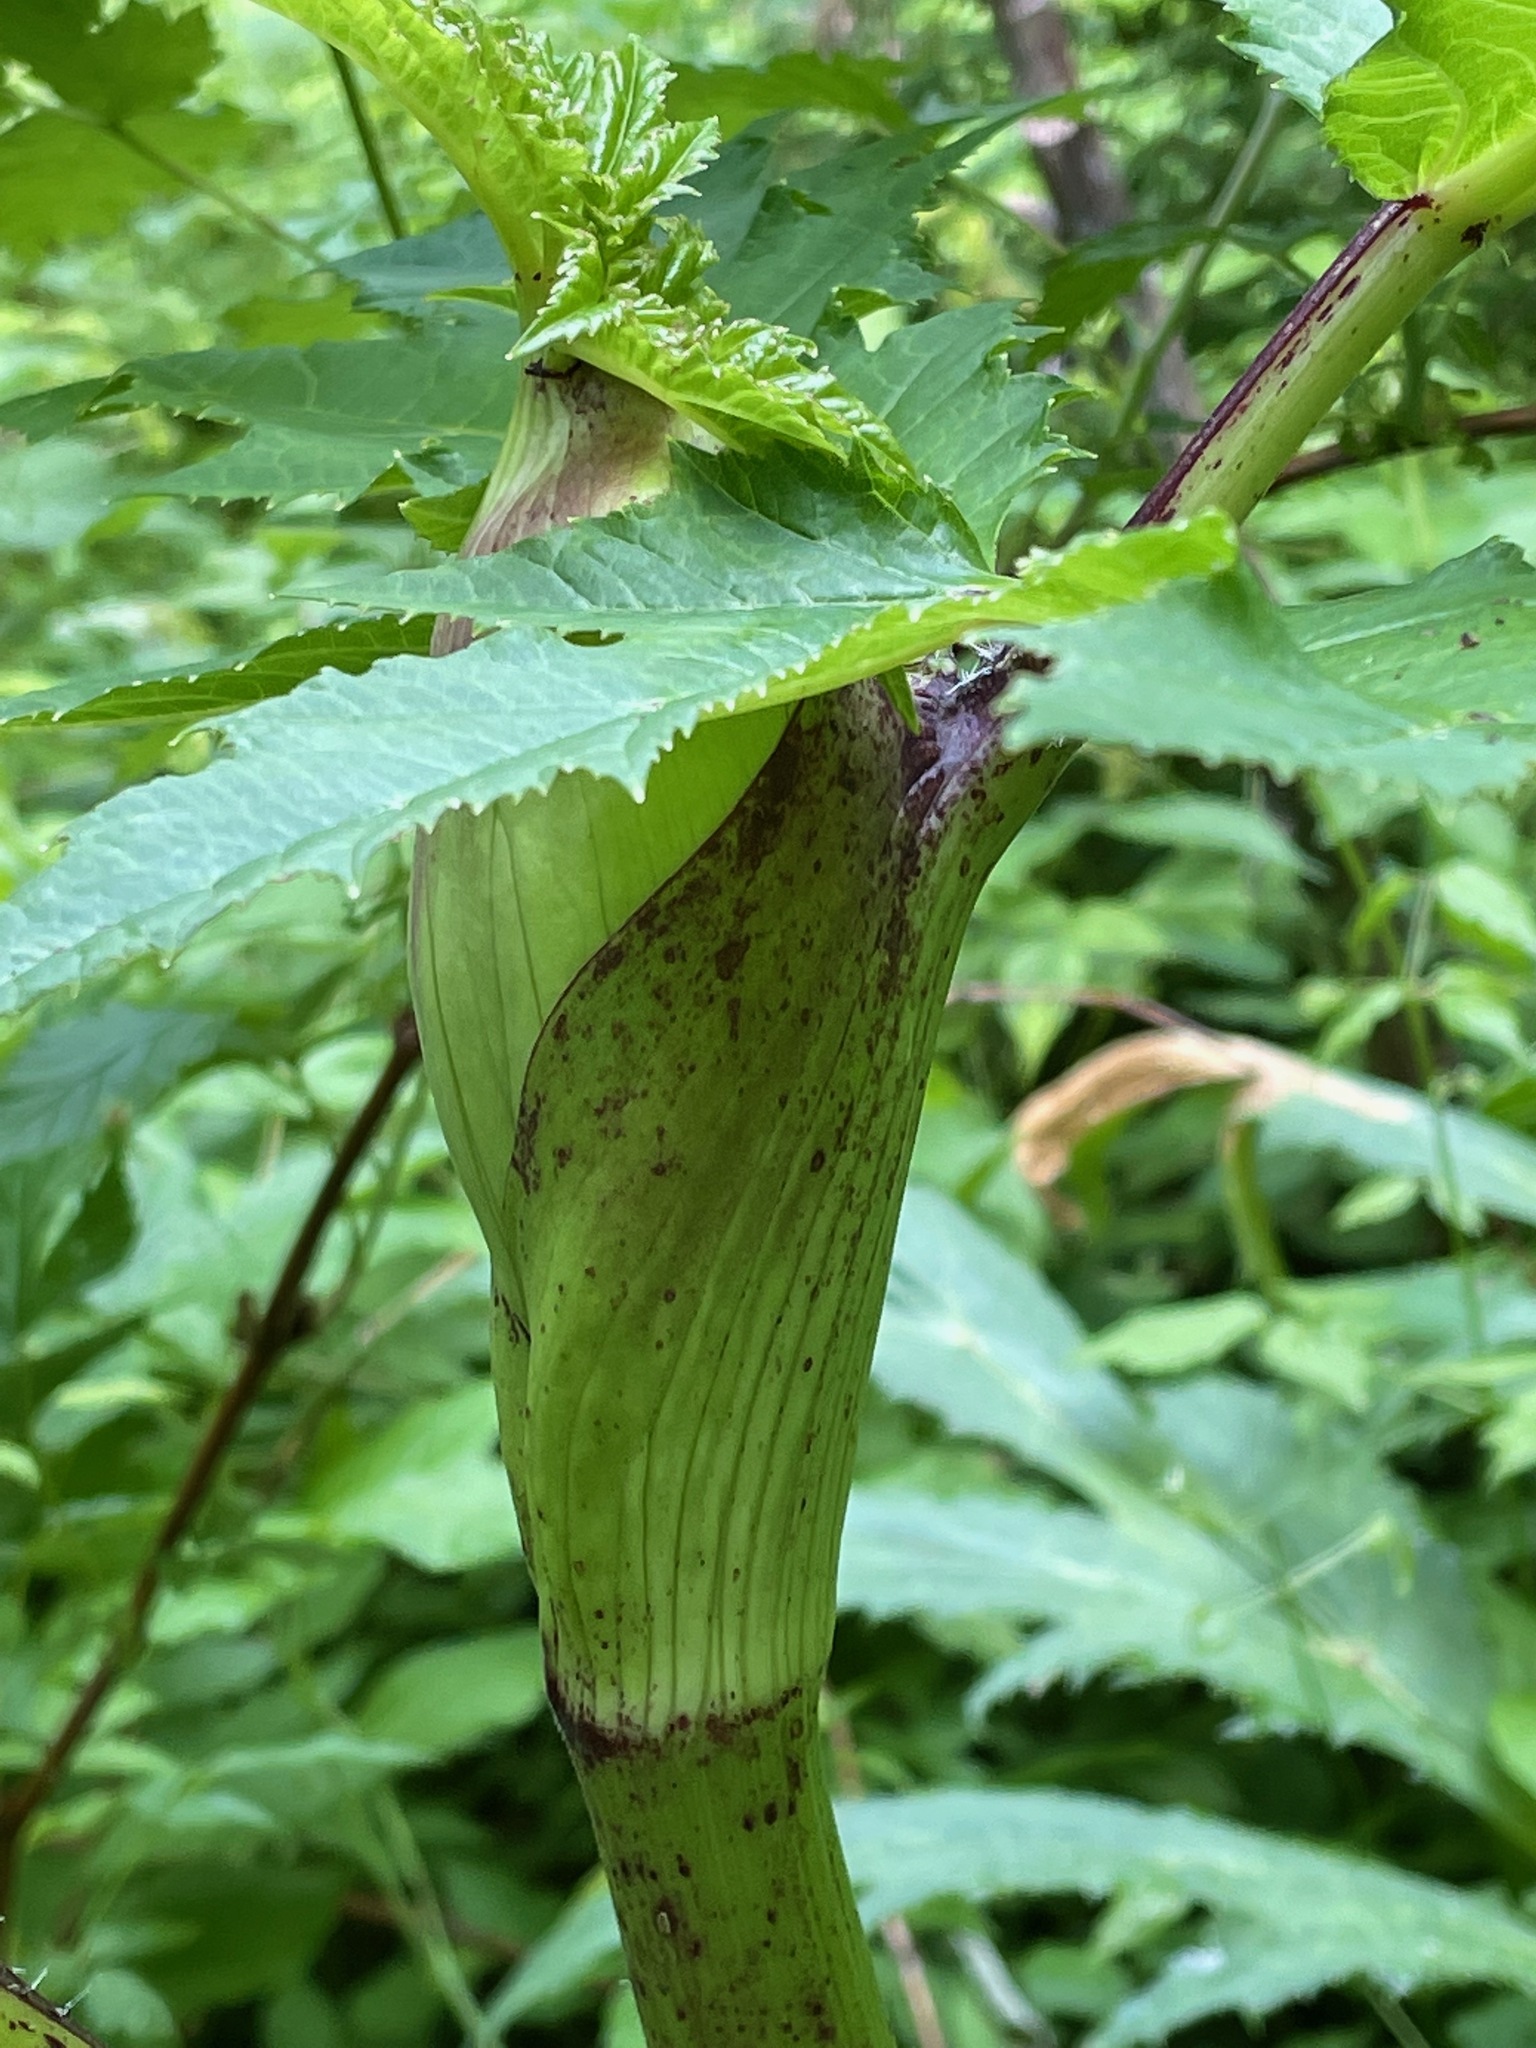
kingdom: Plantae
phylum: Tracheophyta
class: Magnoliopsida
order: Apiales
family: Apiaceae
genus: Heracleum
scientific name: Heracleum mantegazzianum
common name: Giant hogweed
